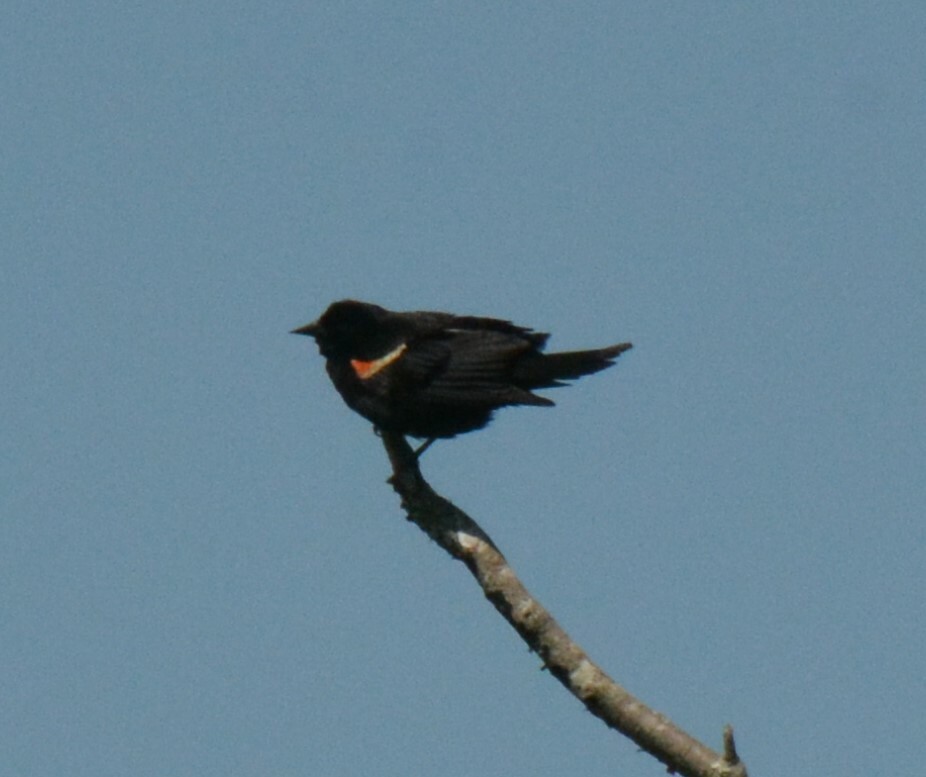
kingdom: Animalia
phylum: Chordata
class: Aves
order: Passeriformes
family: Icteridae
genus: Agelaius
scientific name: Agelaius phoeniceus
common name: Red-winged blackbird
